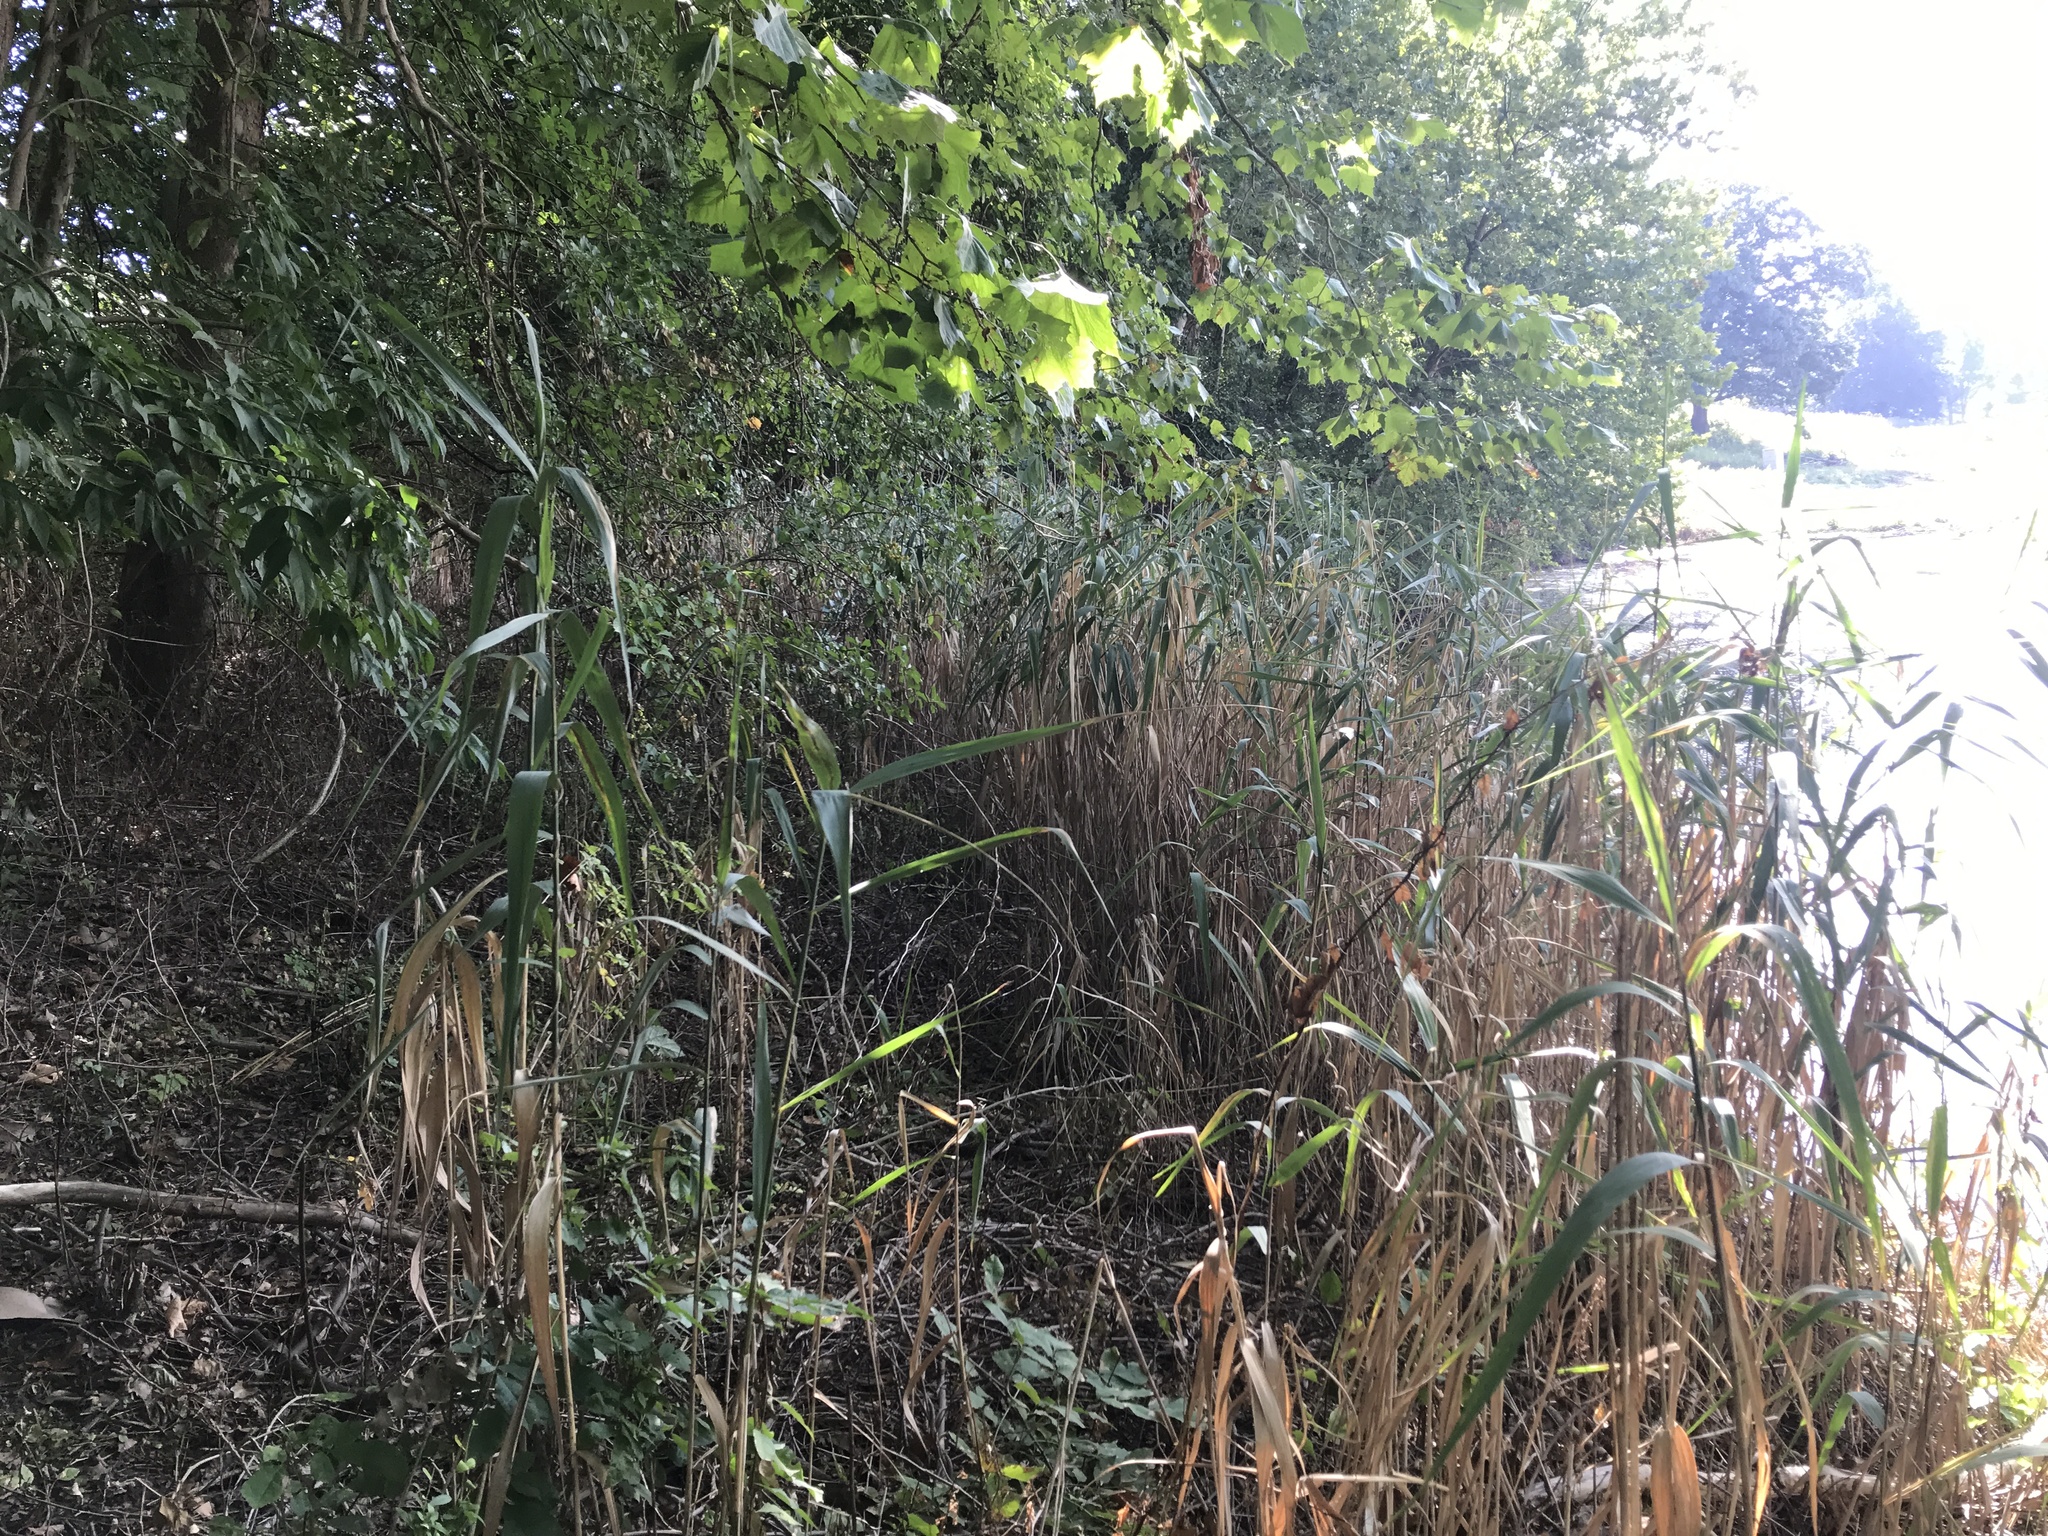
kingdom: Plantae
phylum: Tracheophyta
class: Liliopsida
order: Poales
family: Poaceae
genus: Phragmites
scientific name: Phragmites australis
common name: Common reed
